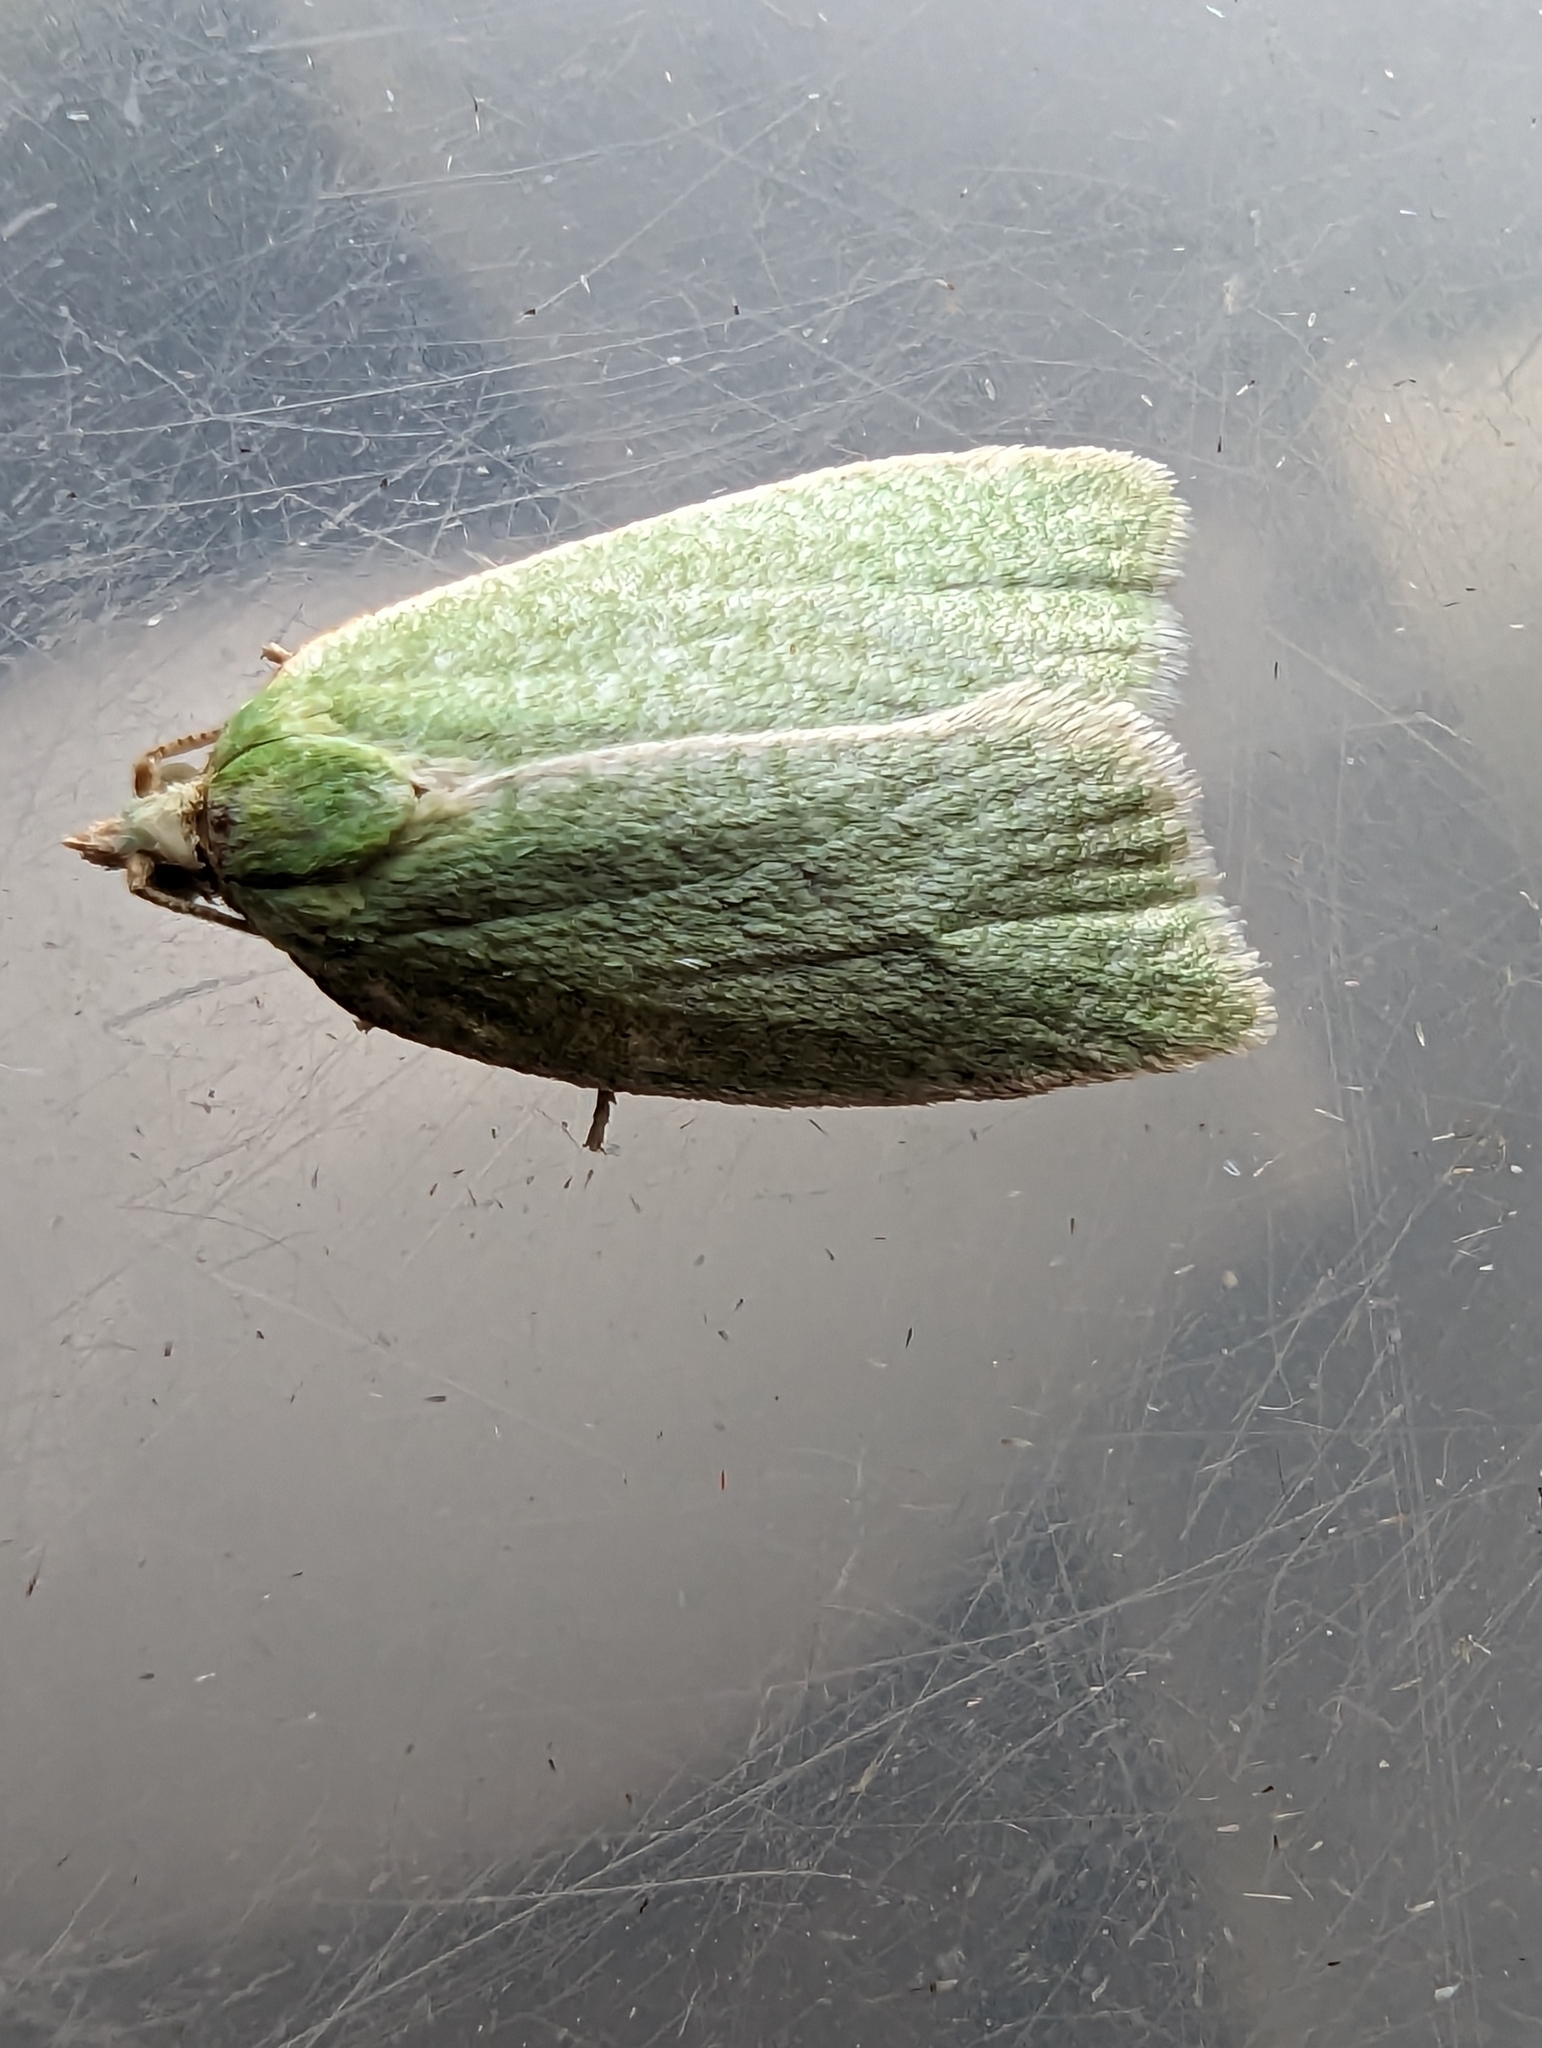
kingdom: Animalia
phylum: Arthropoda
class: Insecta
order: Lepidoptera
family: Tortricidae
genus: Tortrix
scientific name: Tortrix viridana
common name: Green oak tortrix
